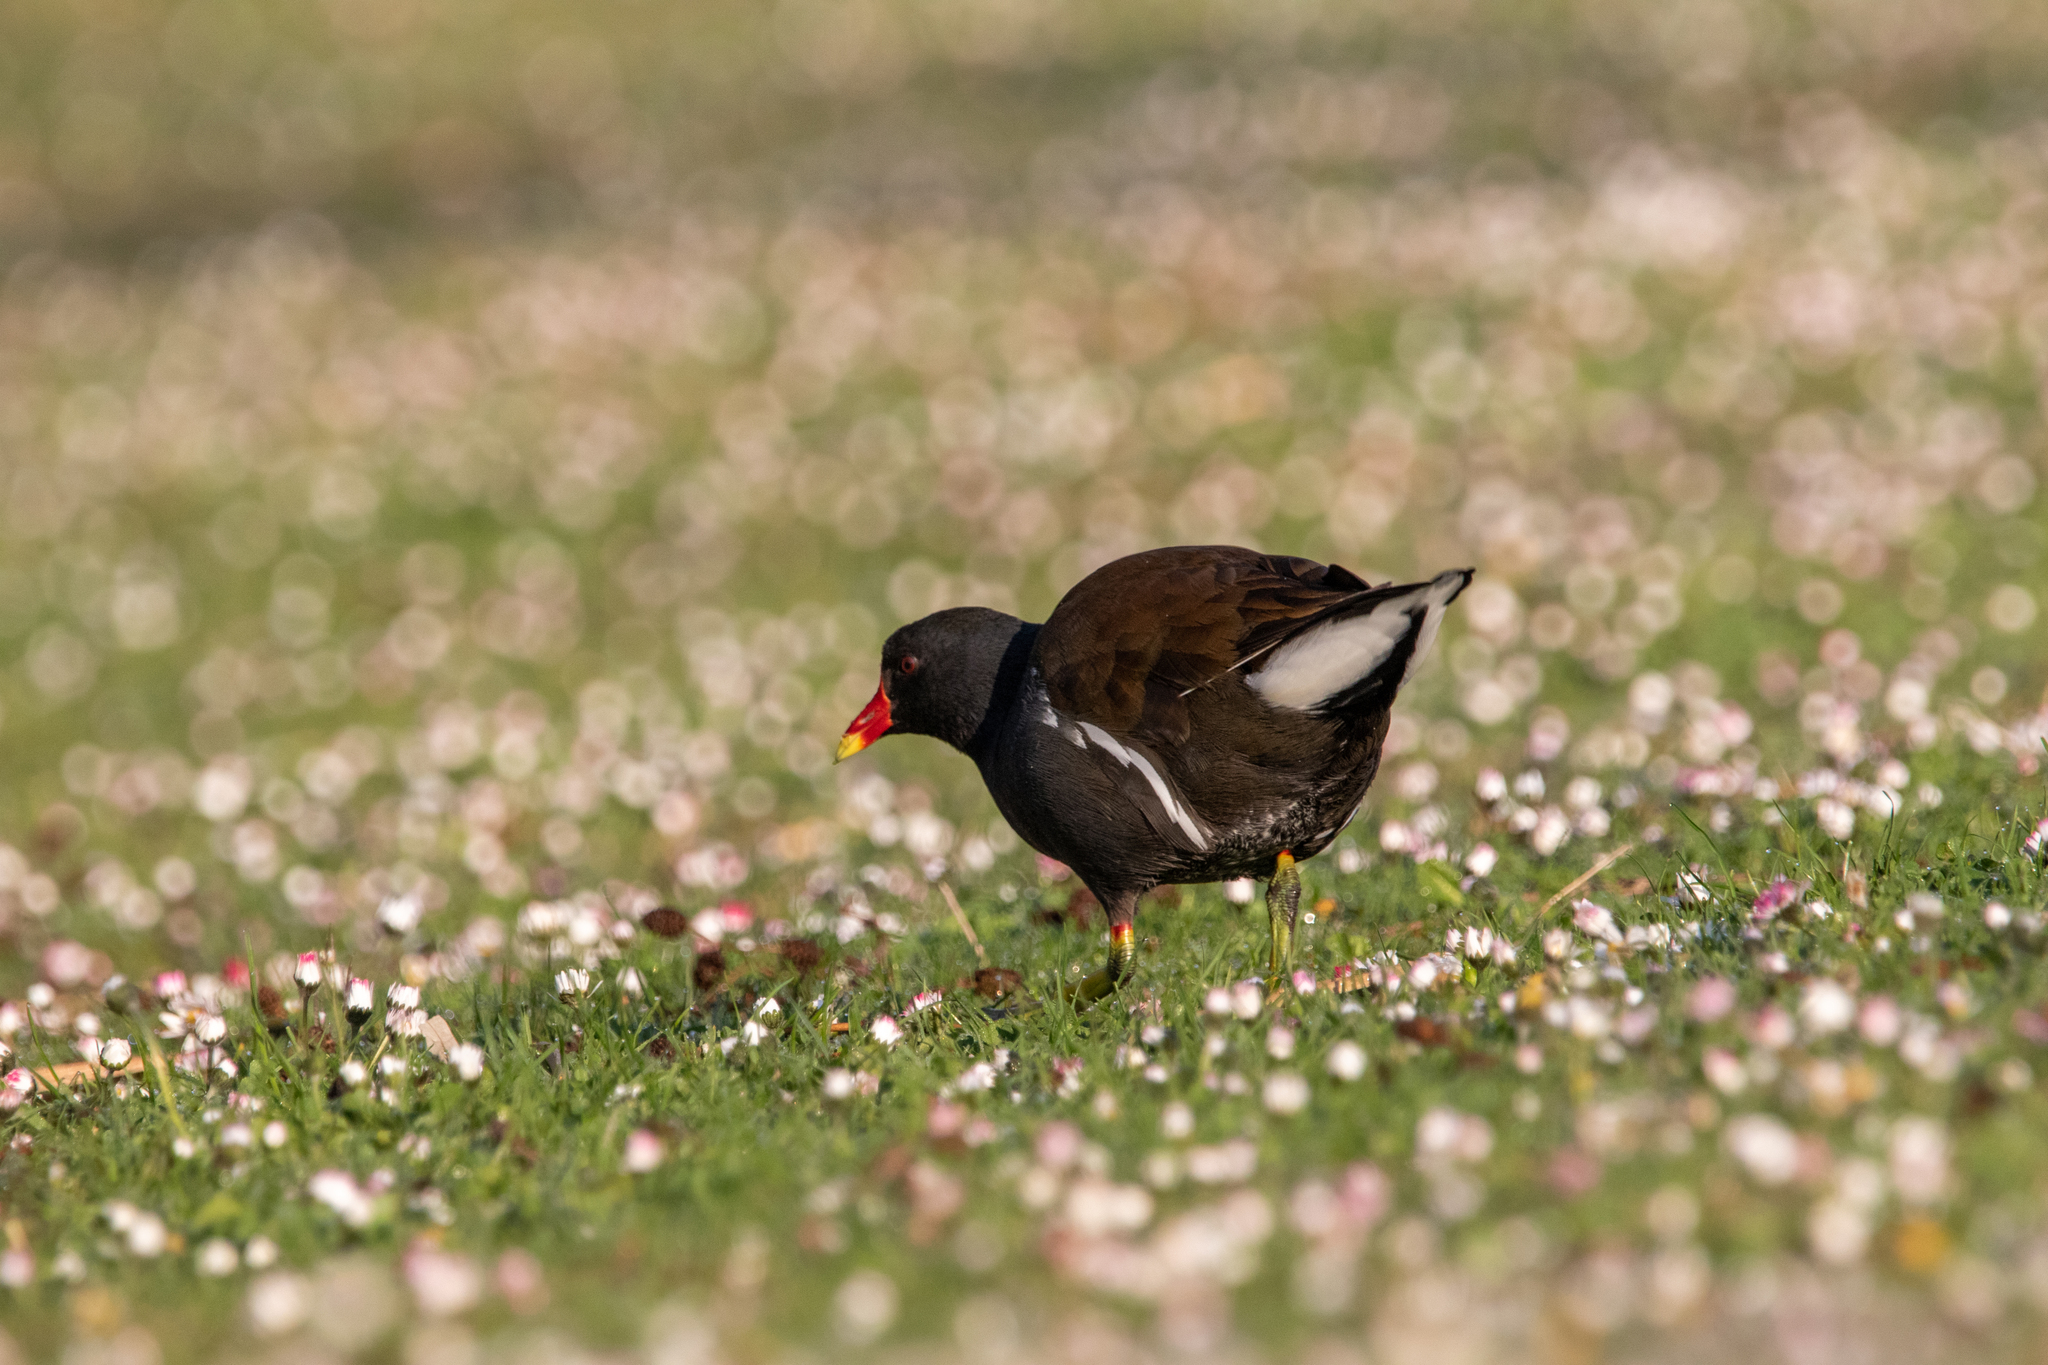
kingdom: Animalia
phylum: Chordata
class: Aves
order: Gruiformes
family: Rallidae
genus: Gallinula
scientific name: Gallinula chloropus
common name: Common moorhen
